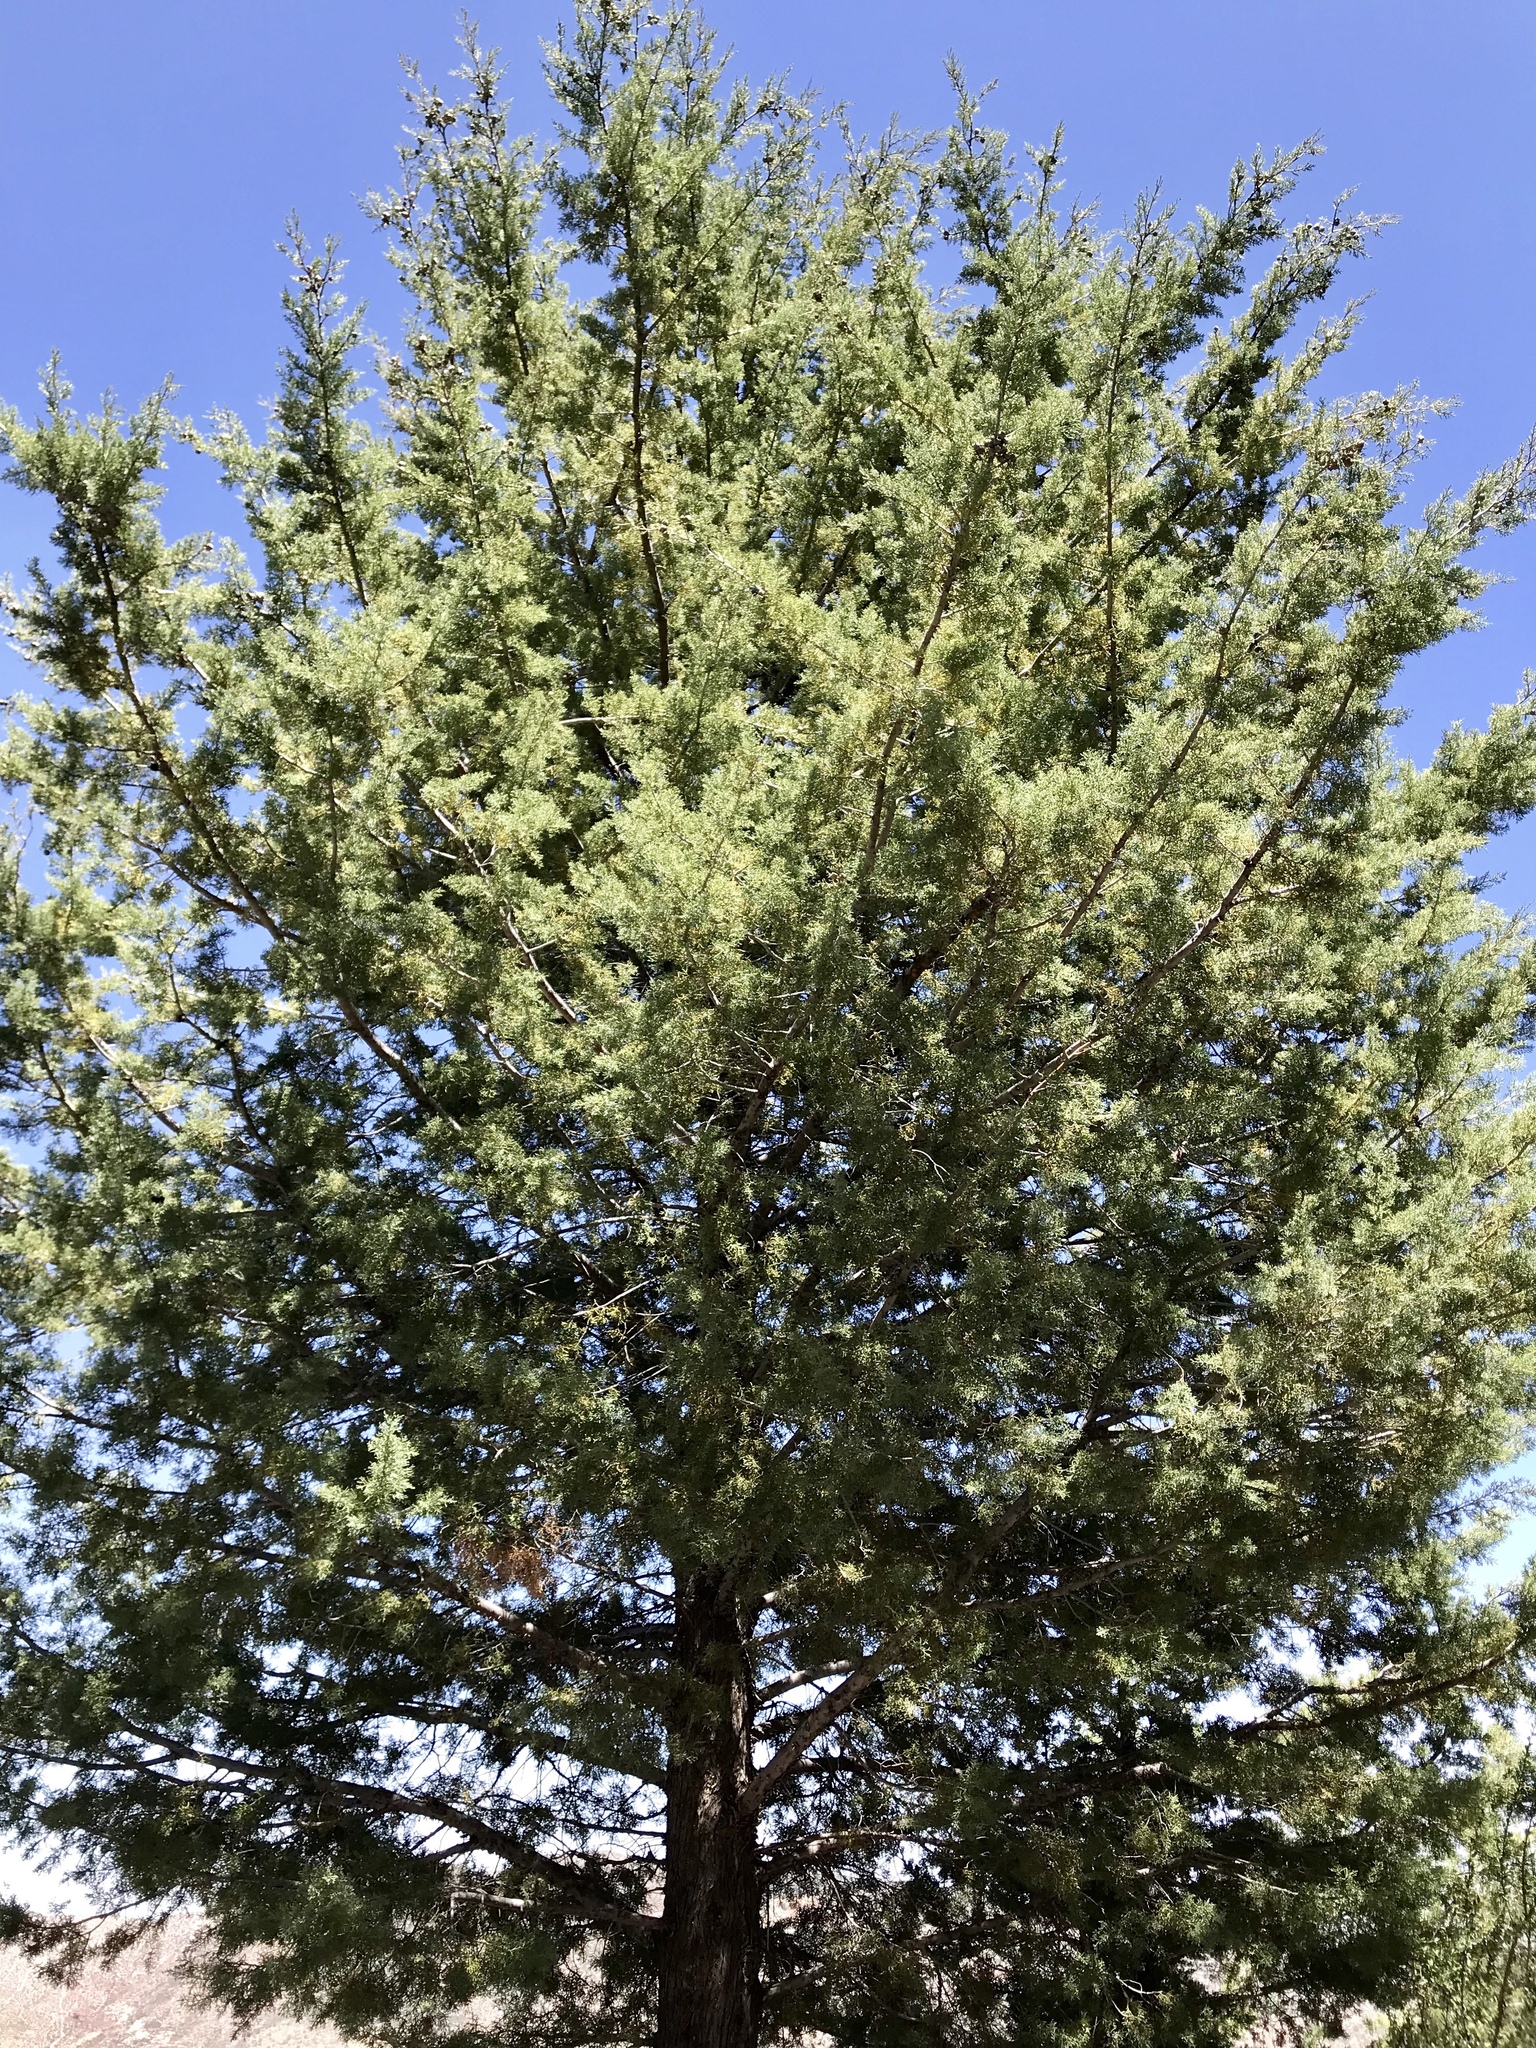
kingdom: Plantae
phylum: Tracheophyta
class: Pinopsida
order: Pinales
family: Cupressaceae
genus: Cupressus
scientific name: Cupressus arizonica
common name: Arizona cypress
